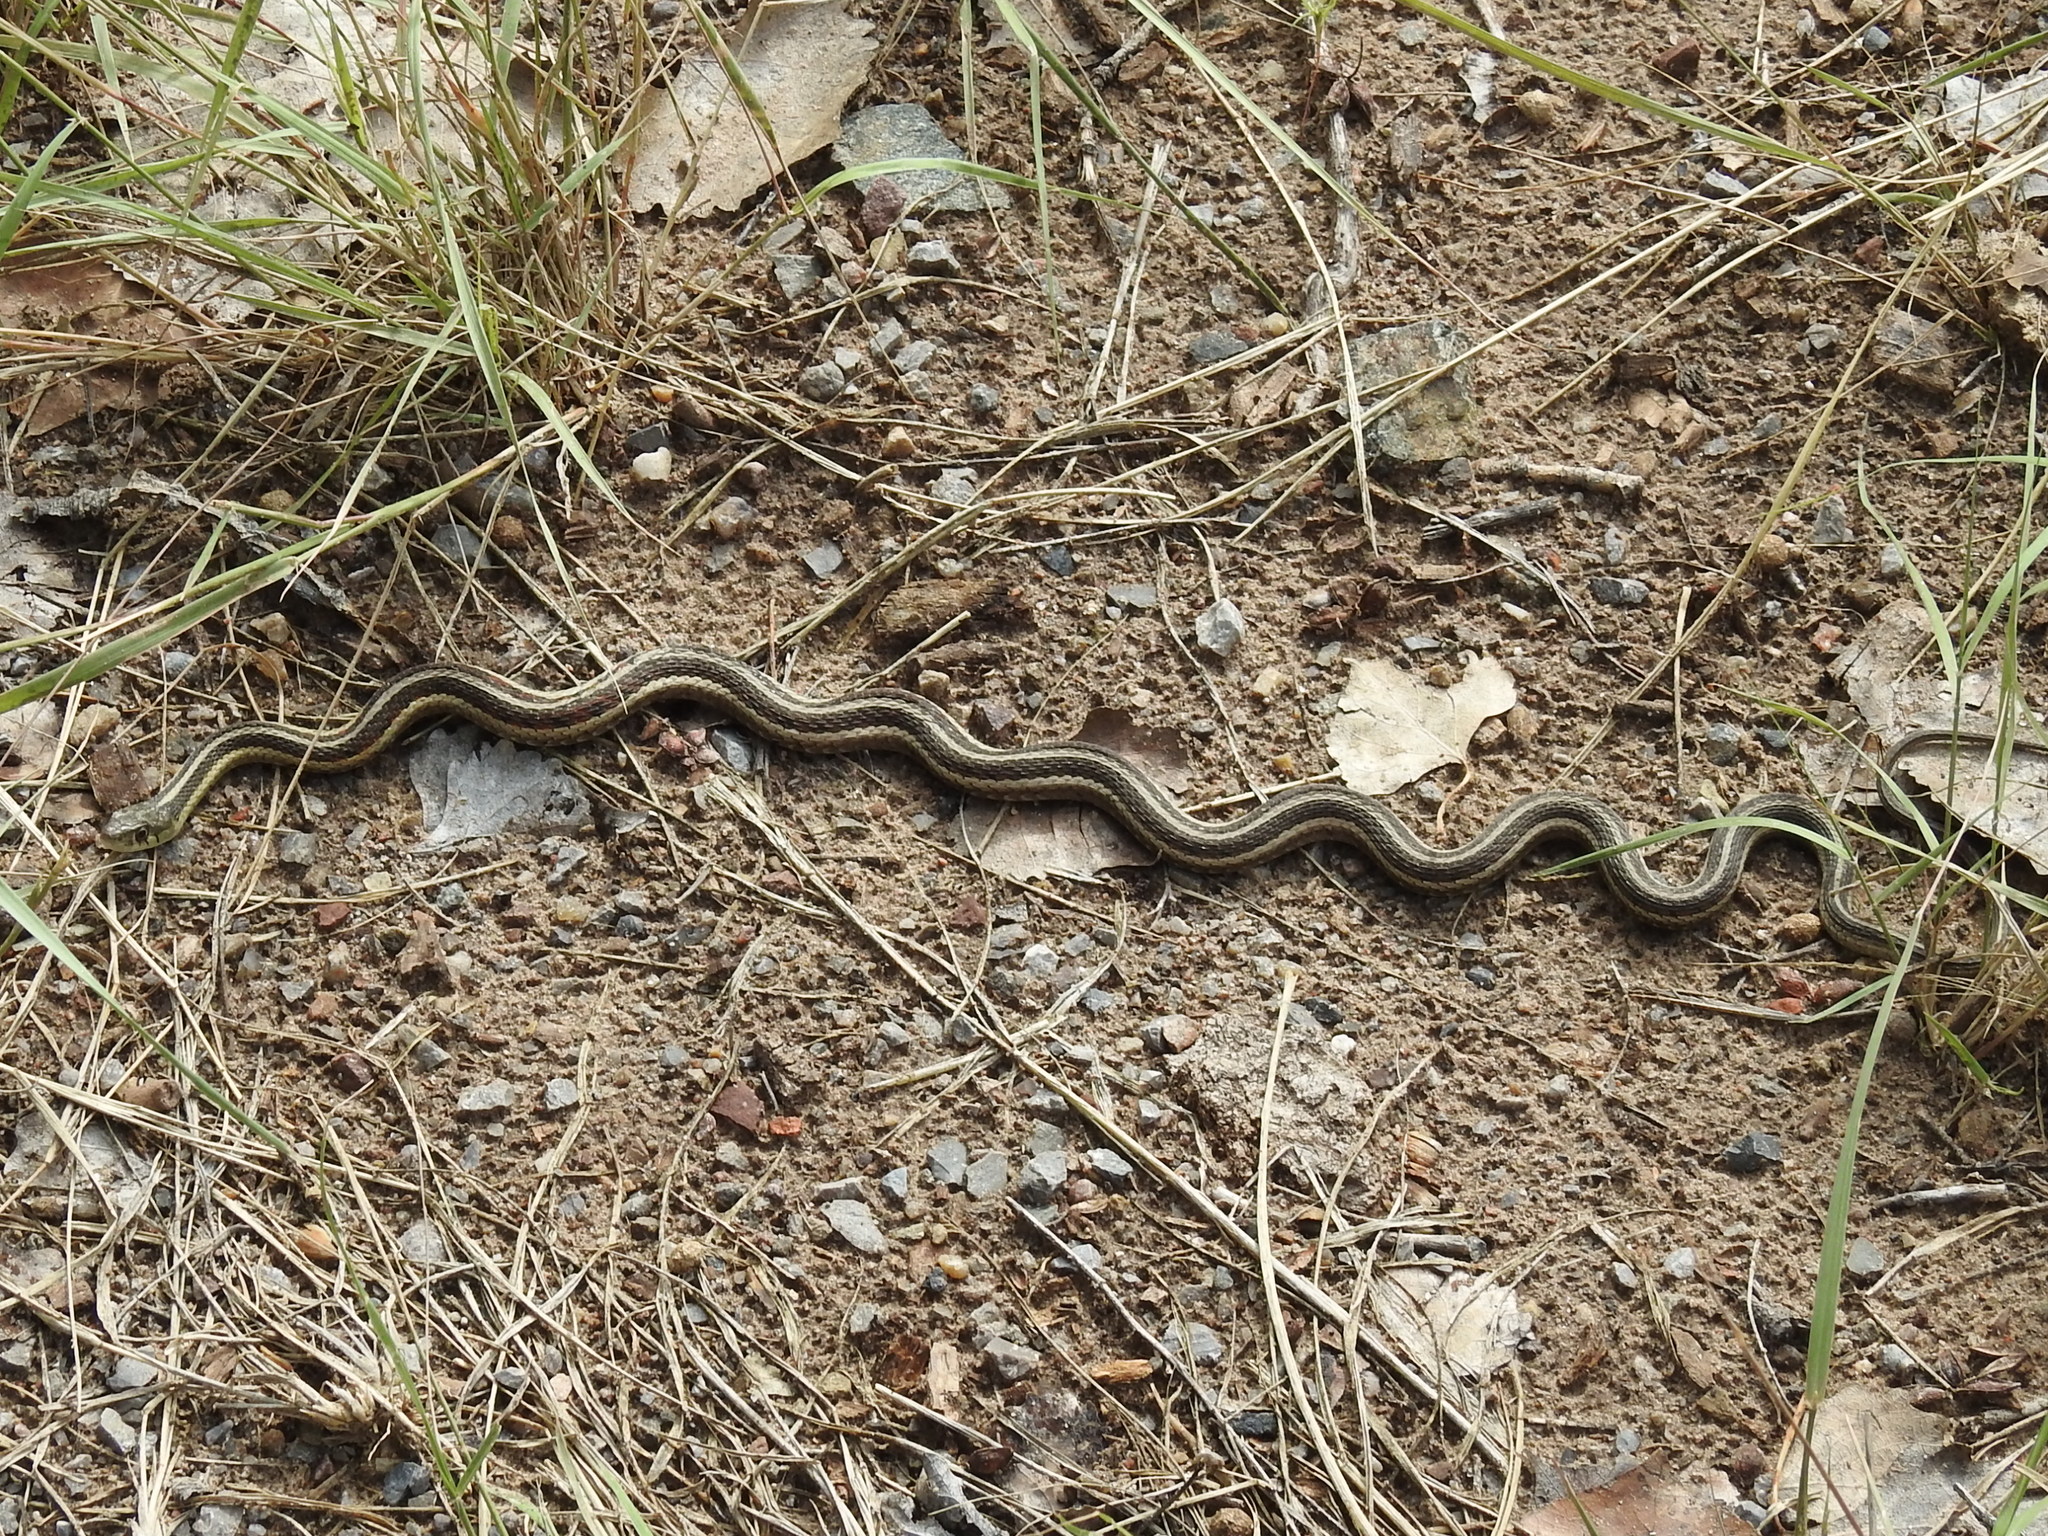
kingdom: Animalia
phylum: Chordata
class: Squamata
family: Colubridae
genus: Thamnophis
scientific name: Thamnophis sirtalis
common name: Common garter snake
